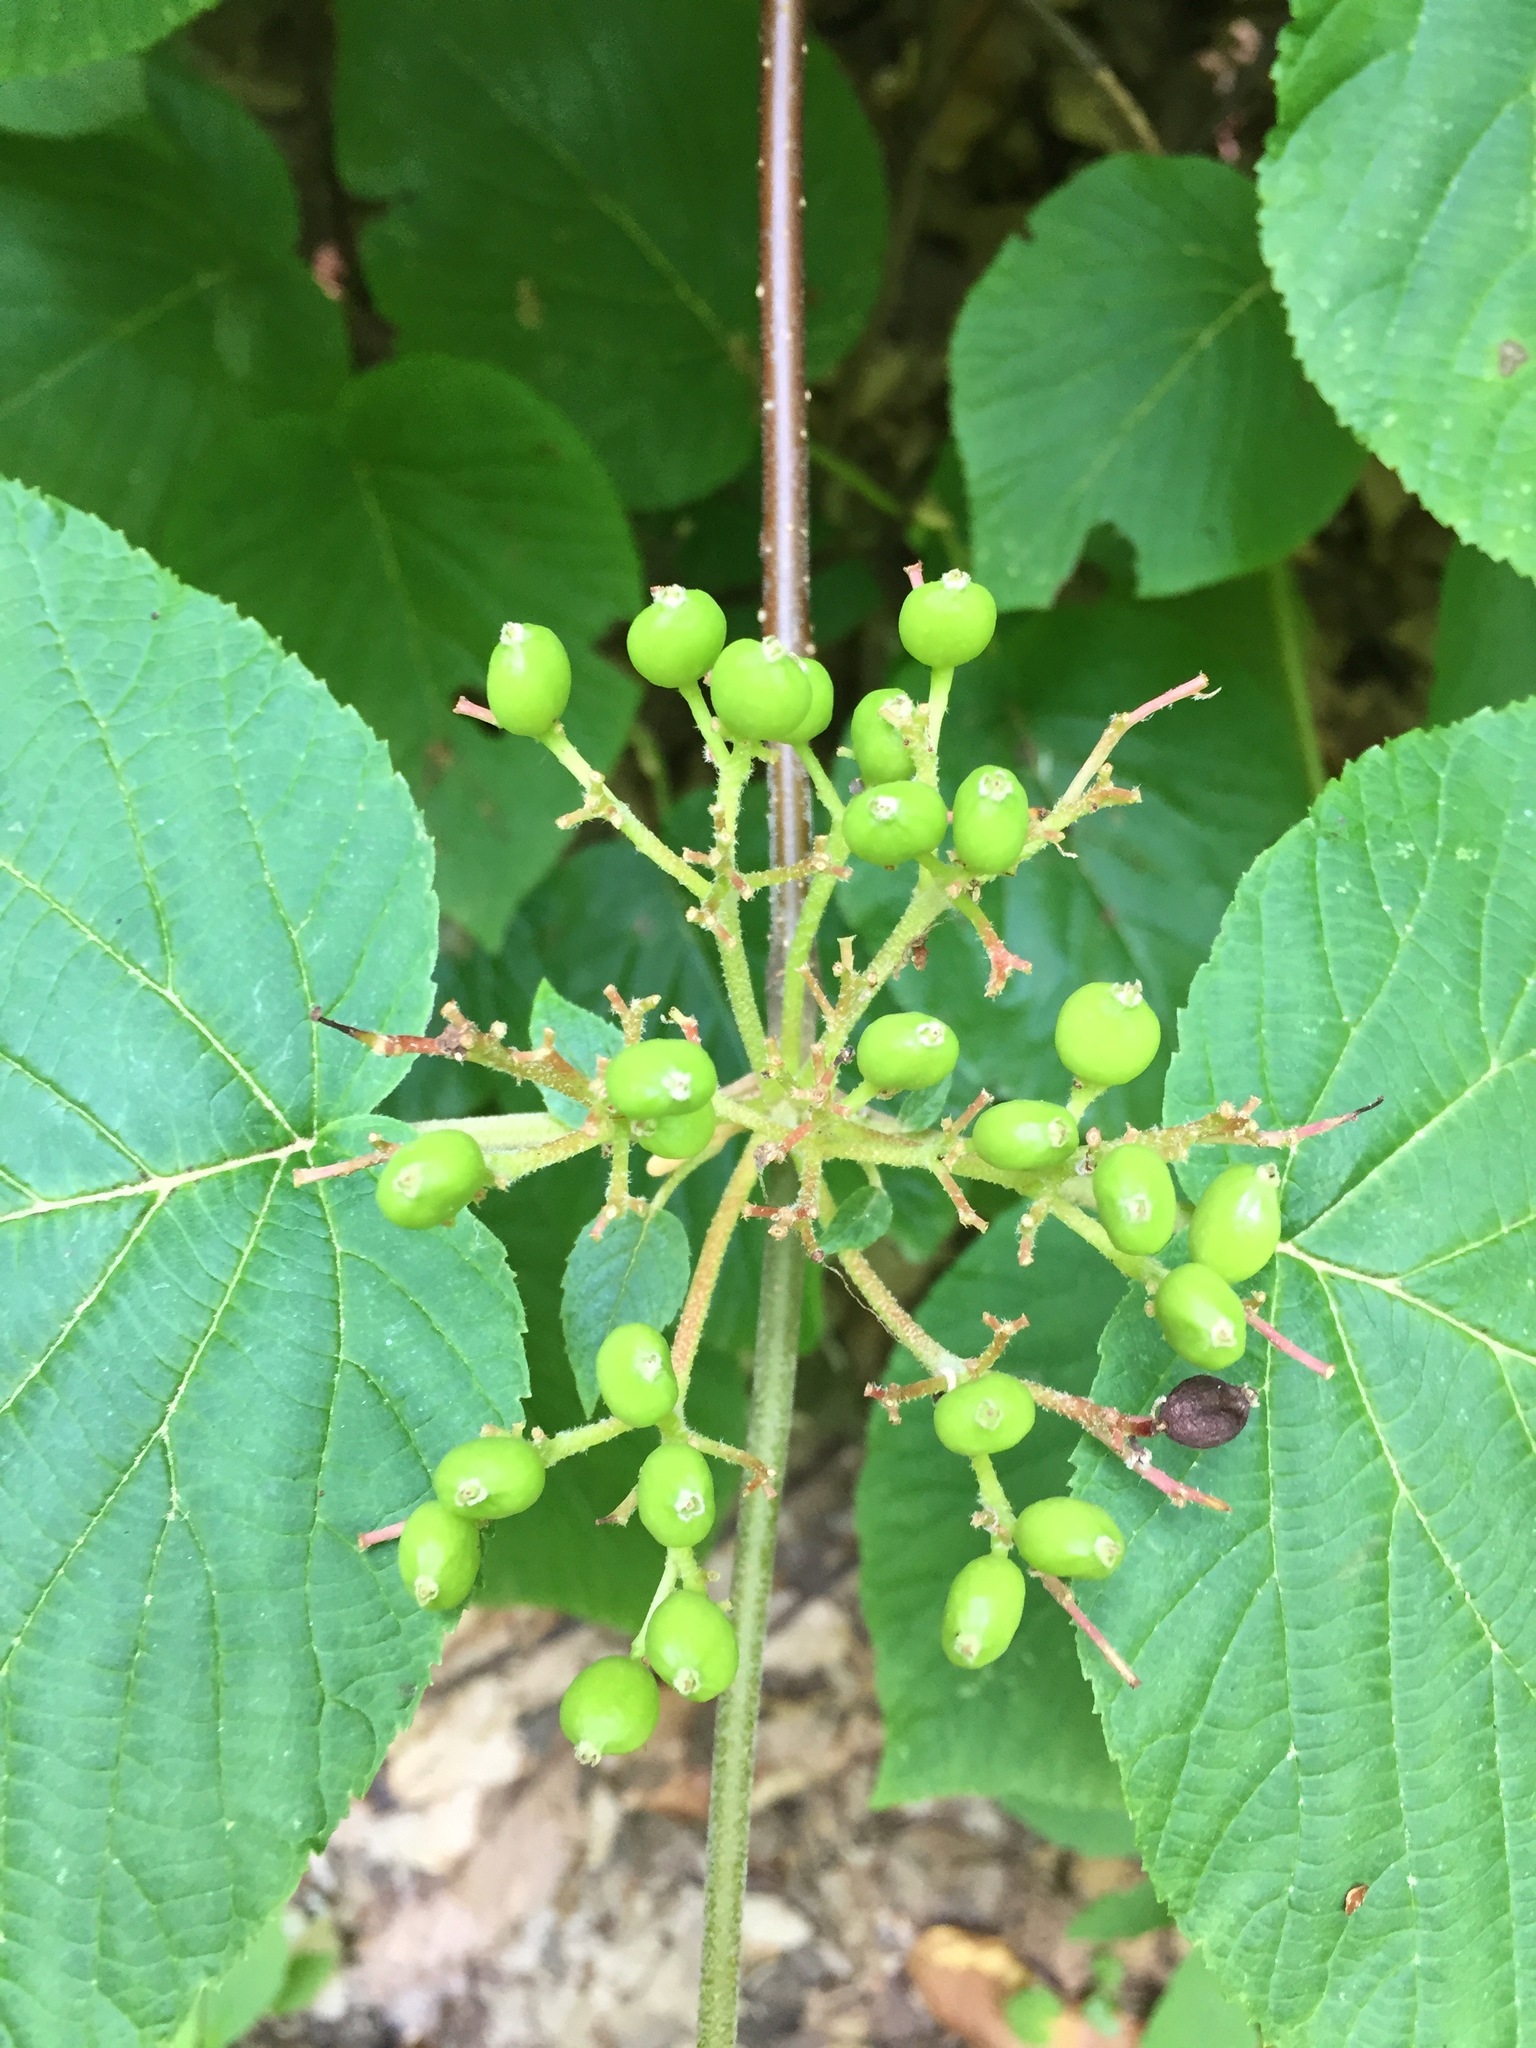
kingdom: Plantae
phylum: Tracheophyta
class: Magnoliopsida
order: Dipsacales
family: Viburnaceae
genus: Viburnum
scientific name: Viburnum lantanoides
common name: Hobblebush
